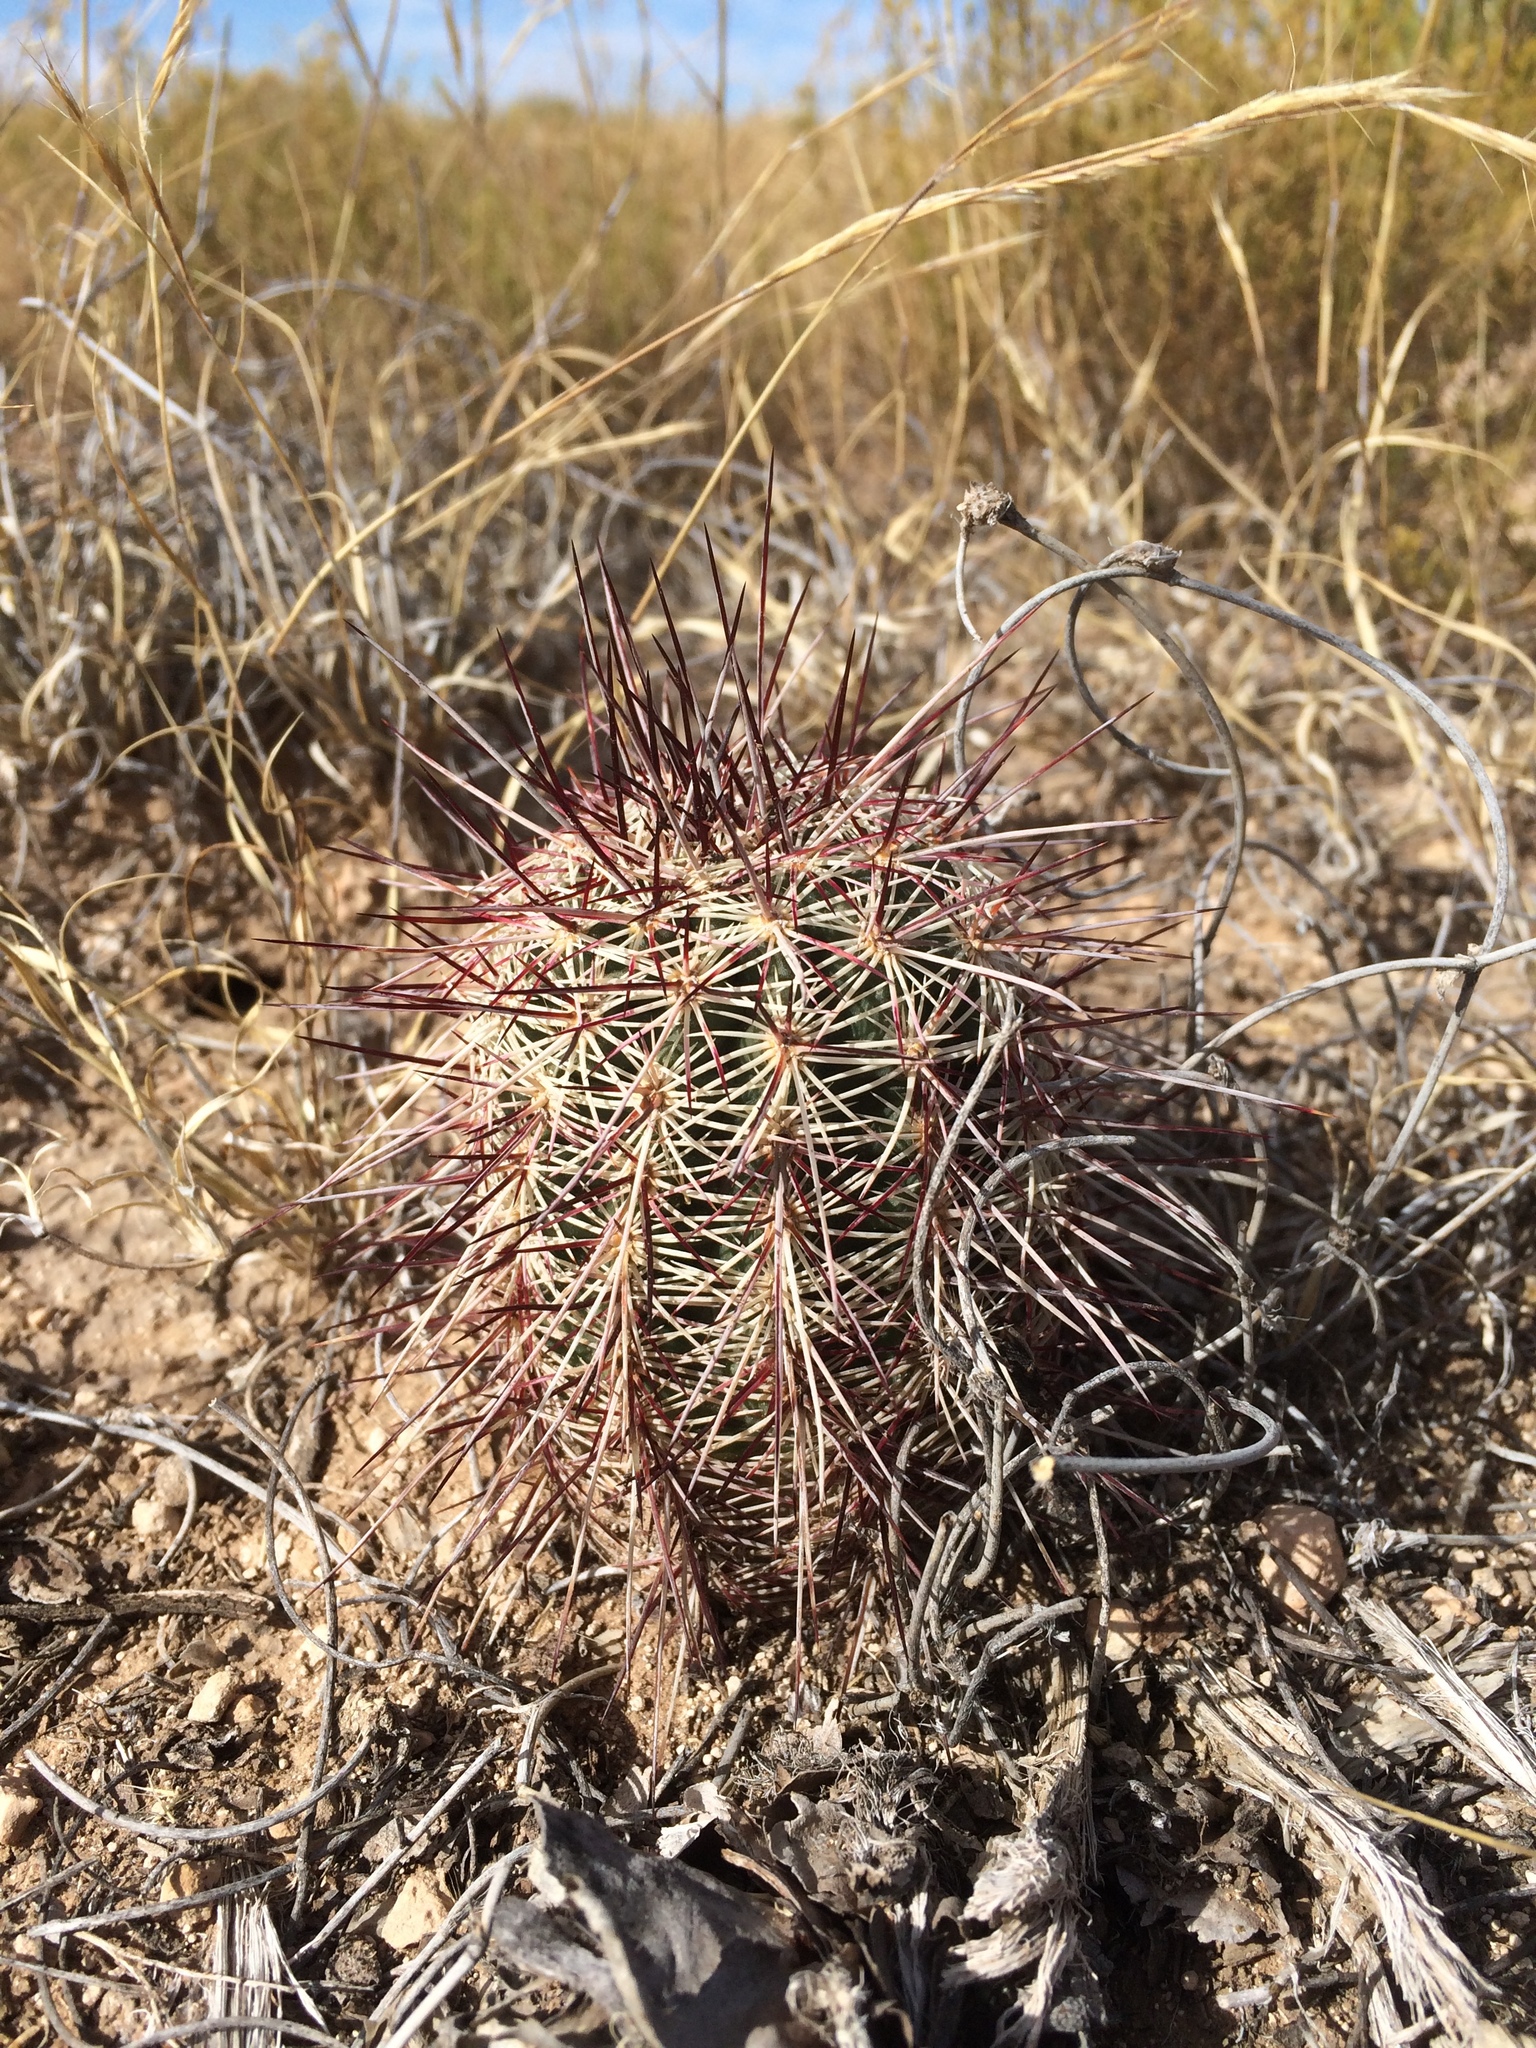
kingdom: Plantae
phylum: Tracheophyta
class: Magnoliopsida
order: Caryophyllales
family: Cactaceae
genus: Echinocereus
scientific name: Echinocereus viridiflorus
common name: Nylon hedgehog cactus
